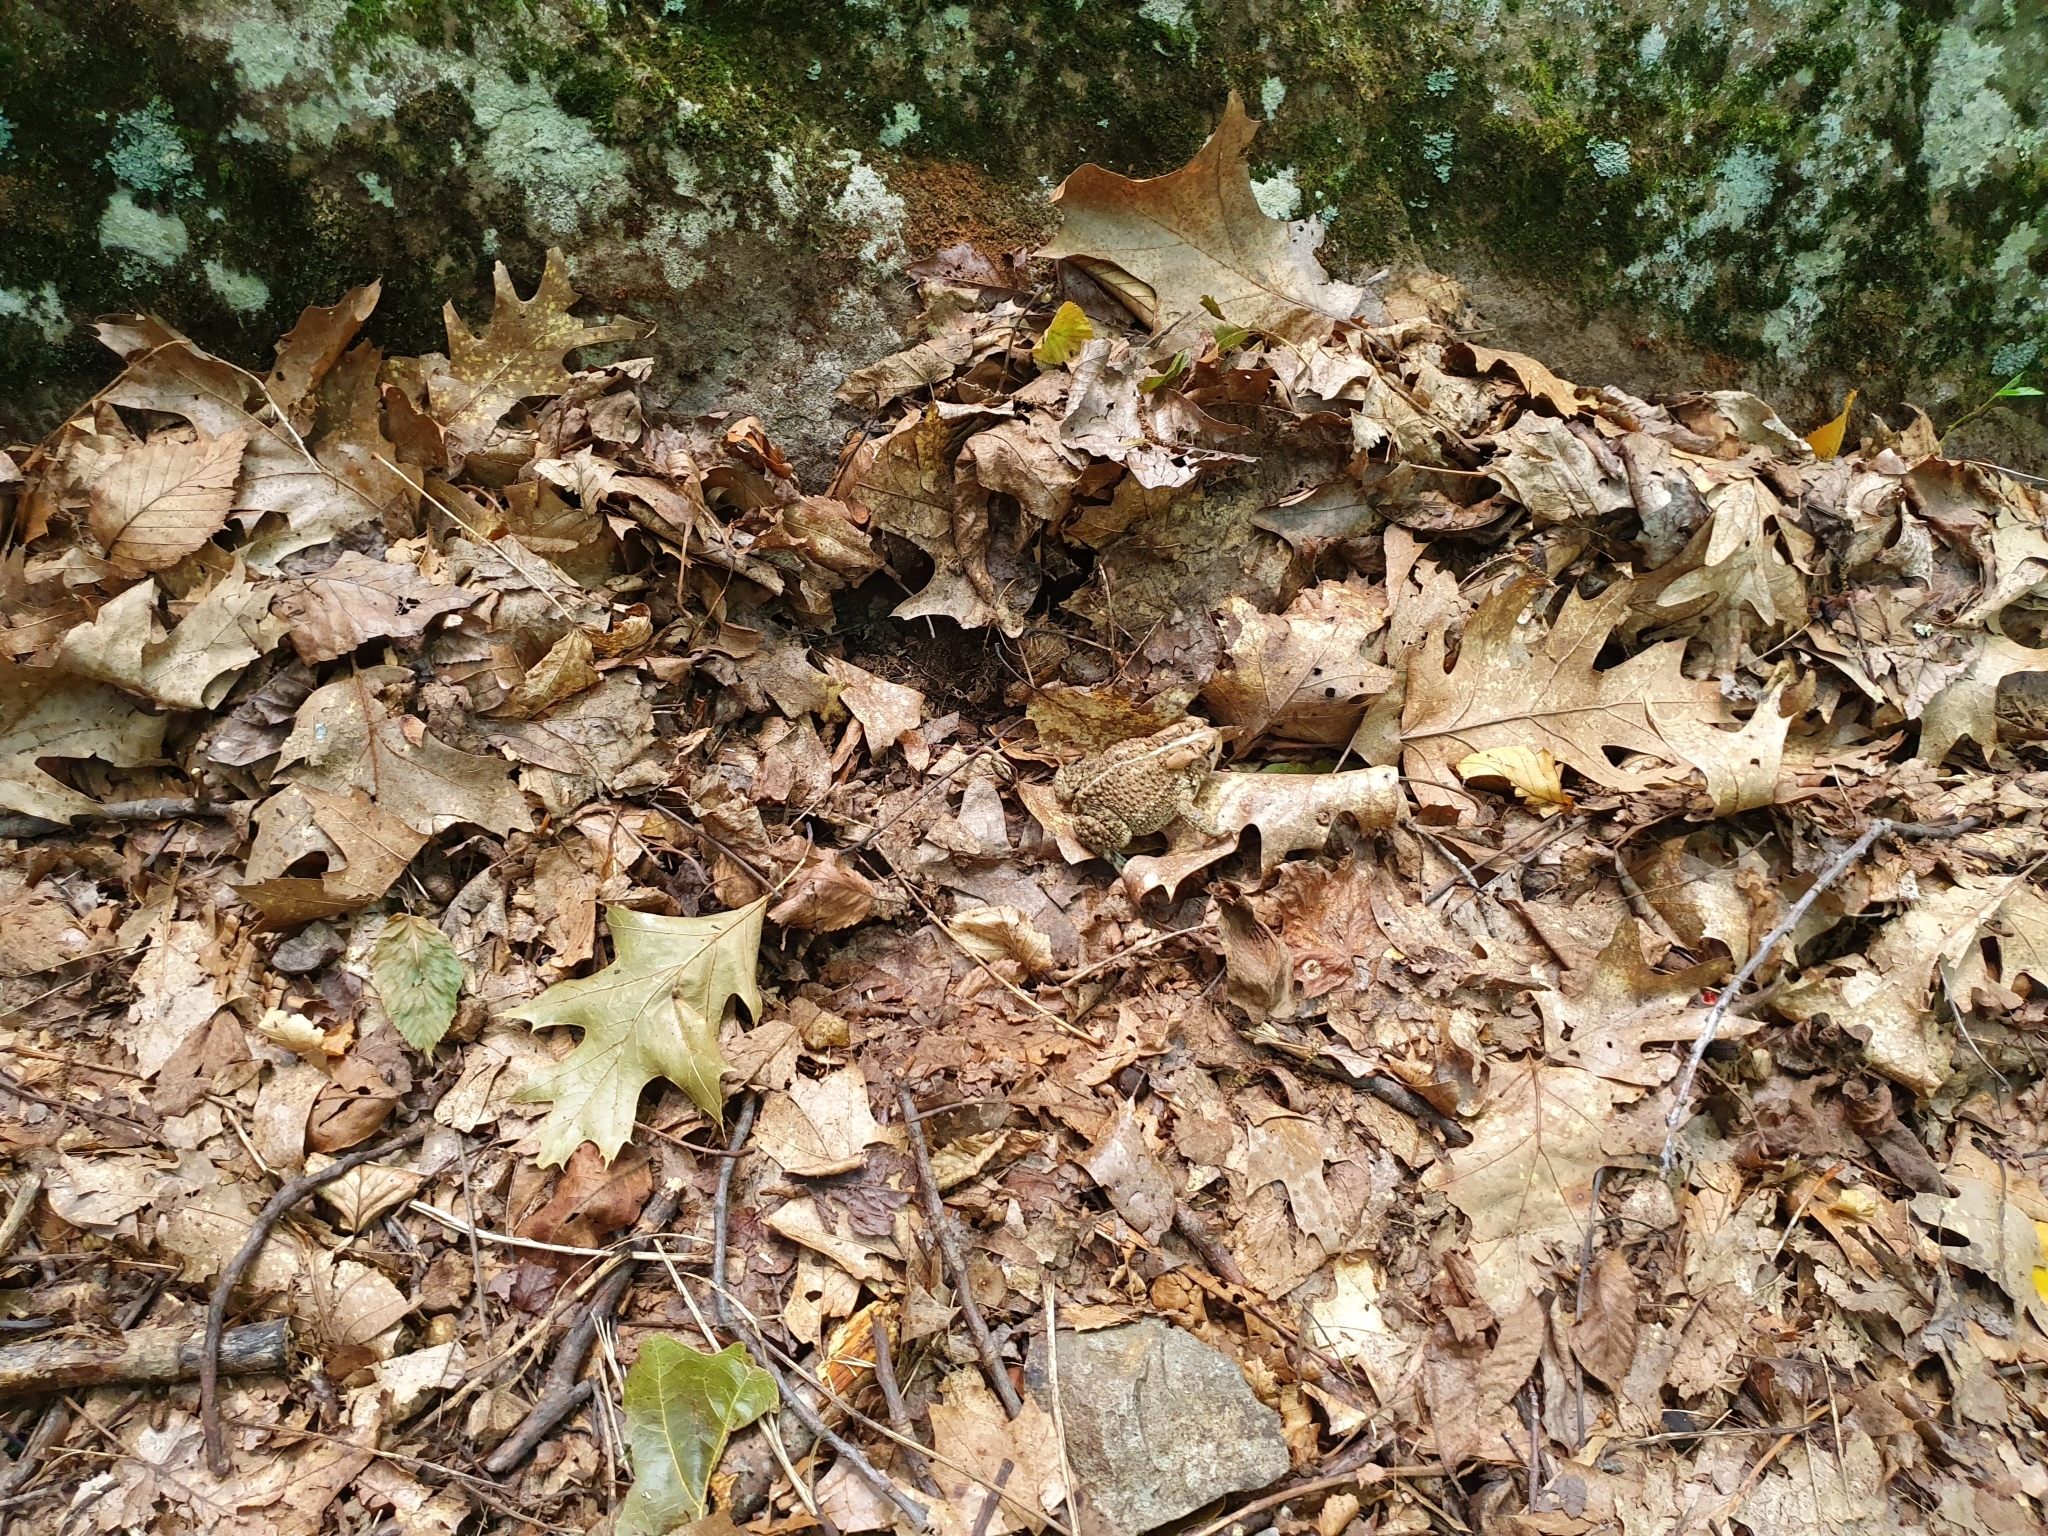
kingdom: Animalia
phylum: Chordata
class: Amphibia
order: Anura
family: Bufonidae
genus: Anaxyrus
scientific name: Anaxyrus americanus
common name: American toad
